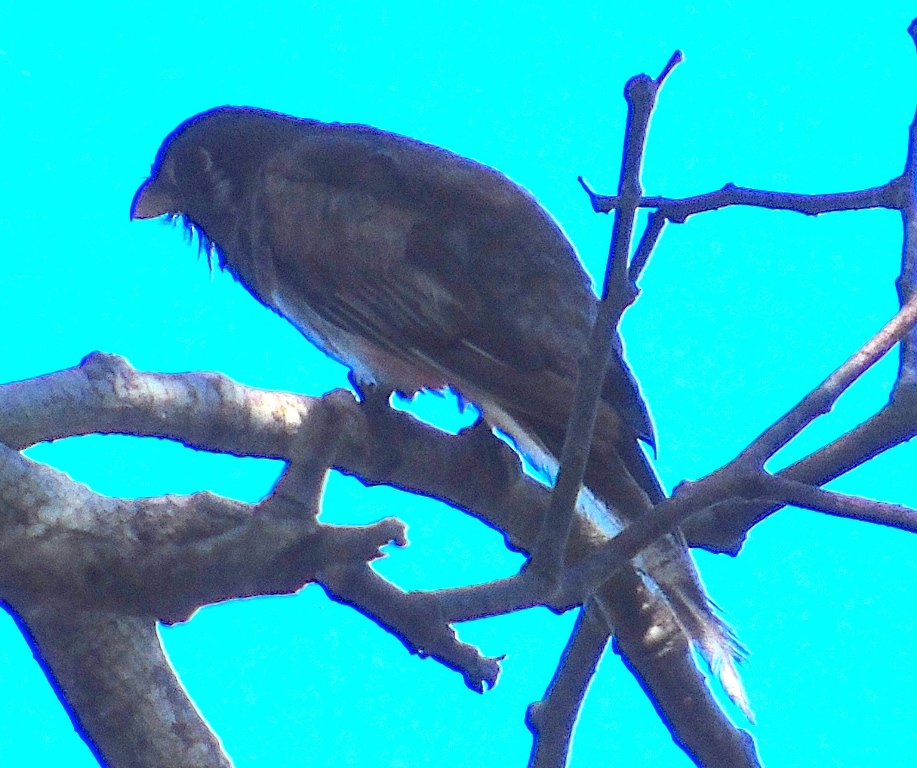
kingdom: Animalia
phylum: Chordata
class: Aves
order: Trogoniformes
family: Trogonidae
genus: Trogon
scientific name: Trogon elegans
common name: Elegant trogon
